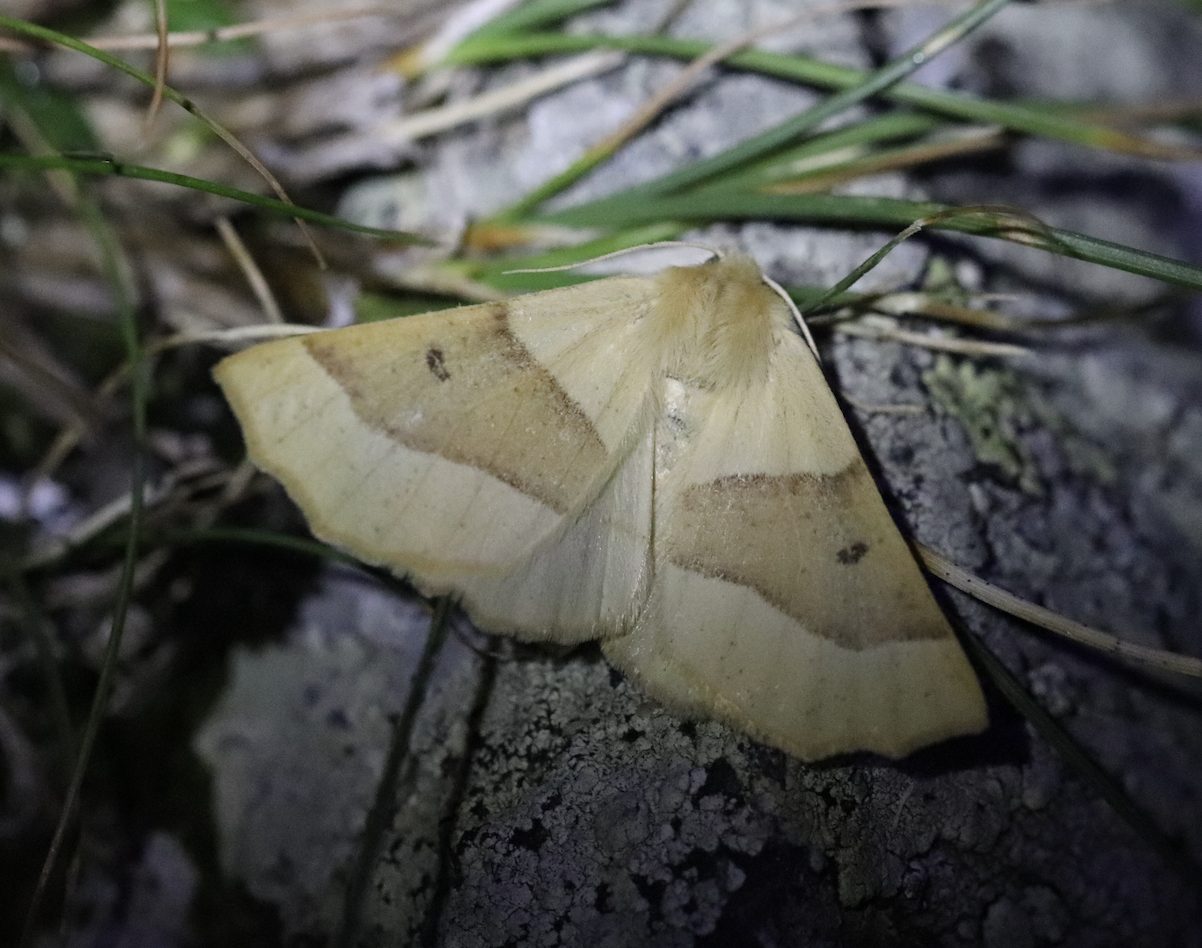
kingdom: Animalia
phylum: Arthropoda
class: Insecta
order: Lepidoptera
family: Geometridae
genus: Crocallis
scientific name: Crocallis elinguaria
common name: Scalloped oak
